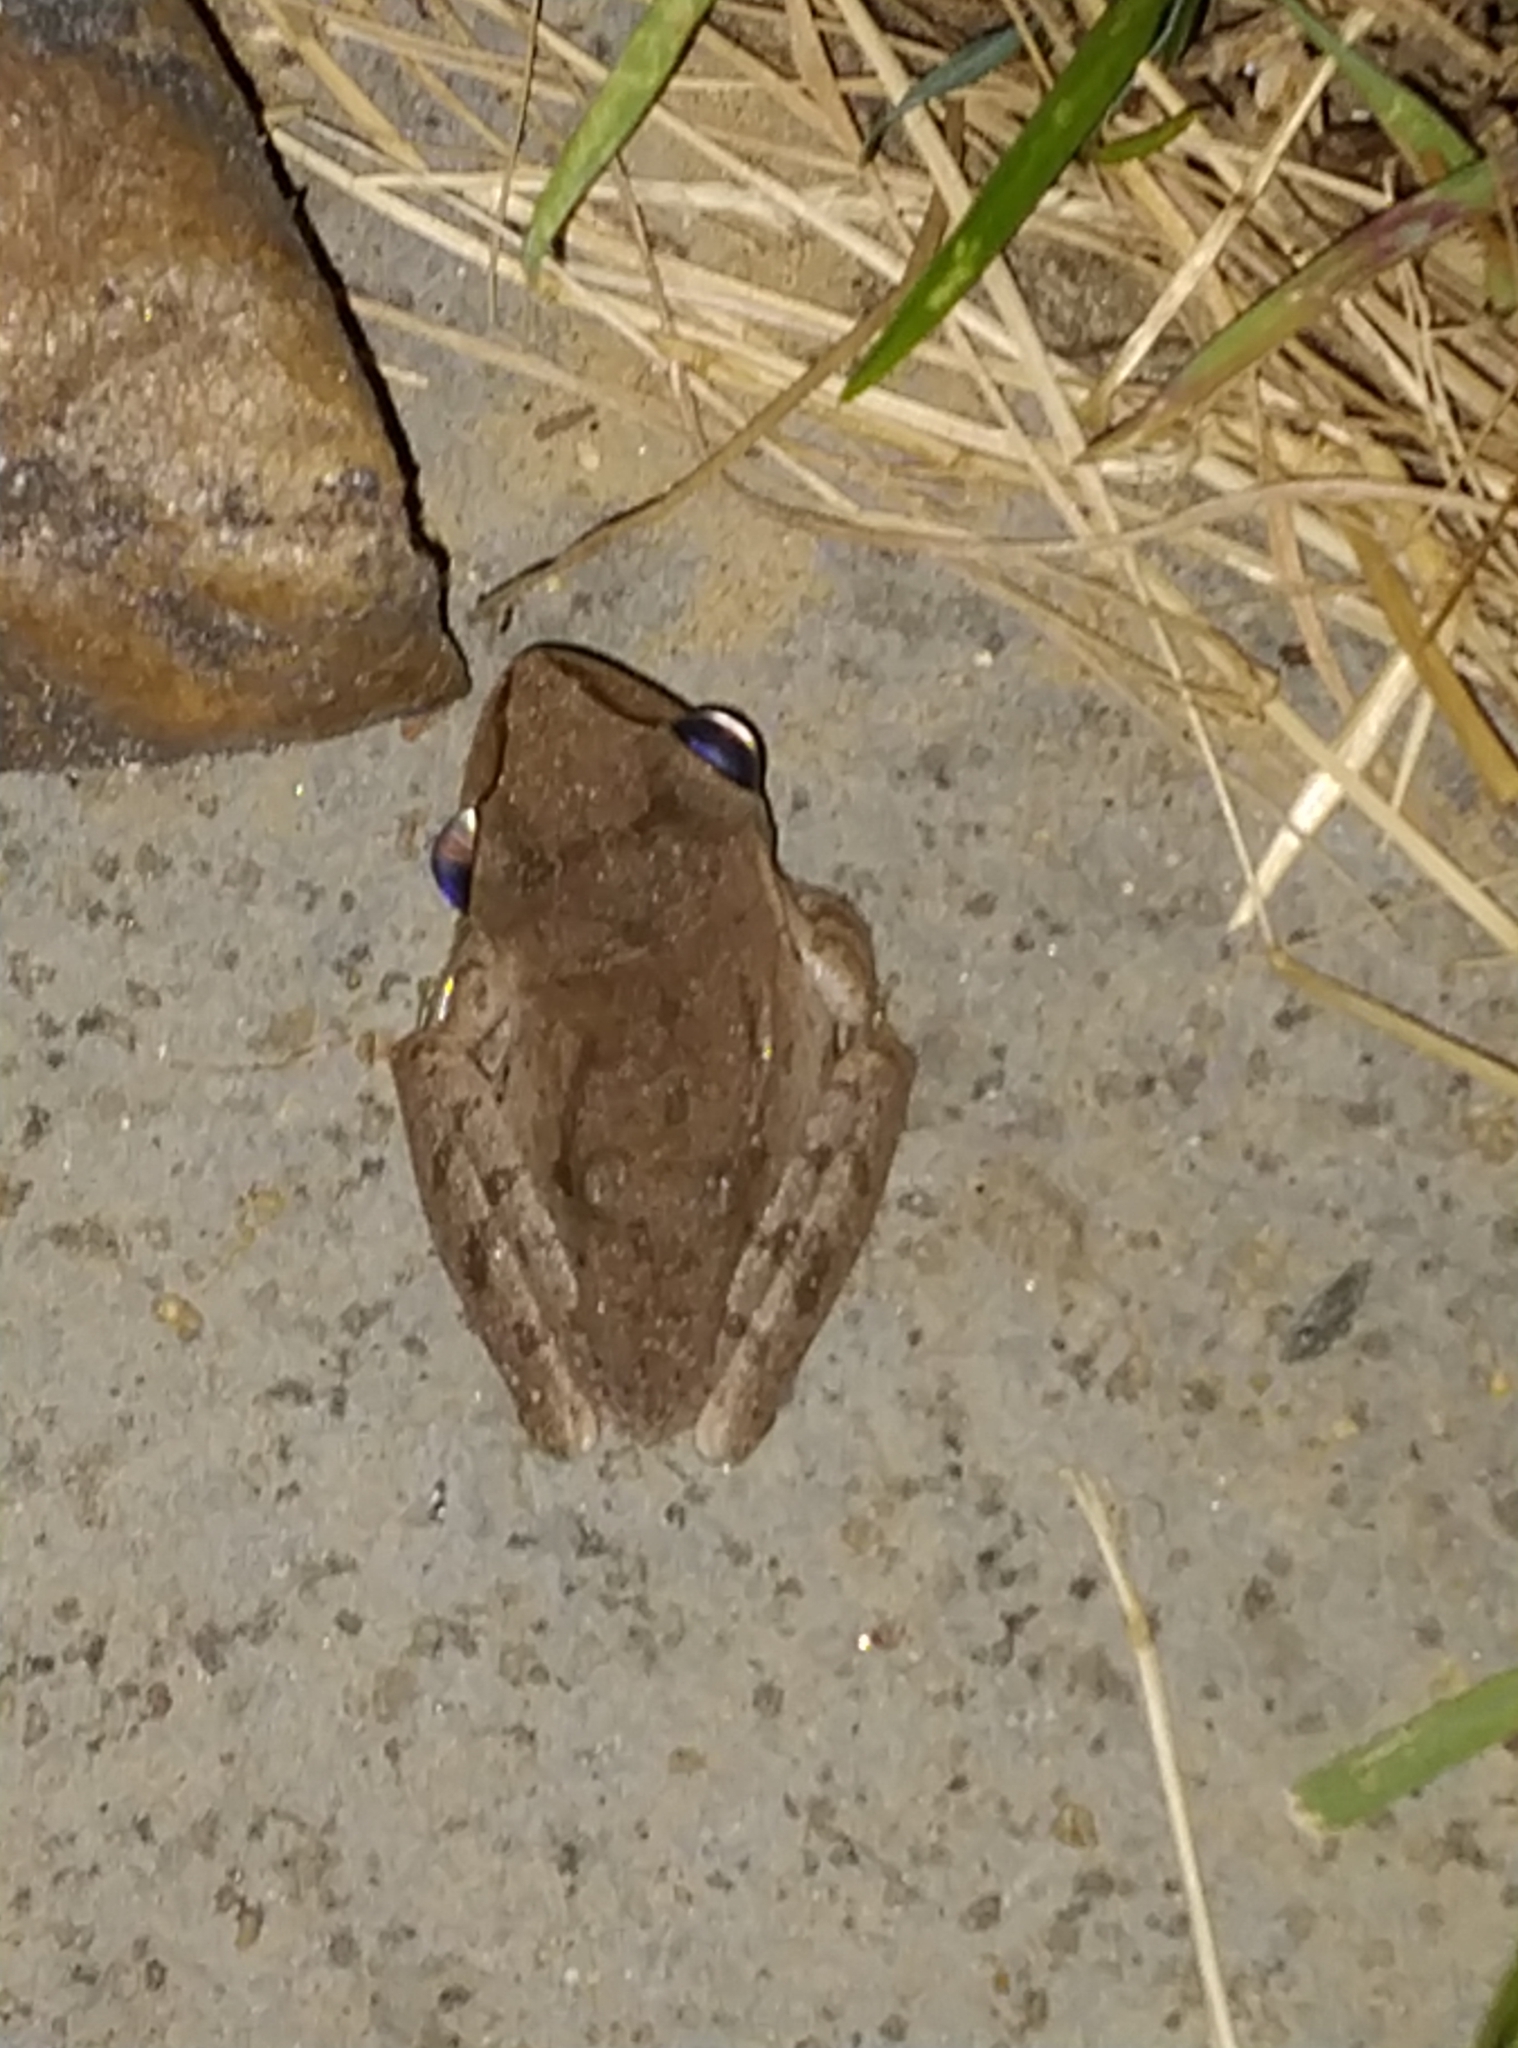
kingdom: Animalia
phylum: Chordata
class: Amphibia
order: Anura
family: Rhacophoridae
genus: Polypedates
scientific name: Polypedates maculatus
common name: Himalayan tree frog
